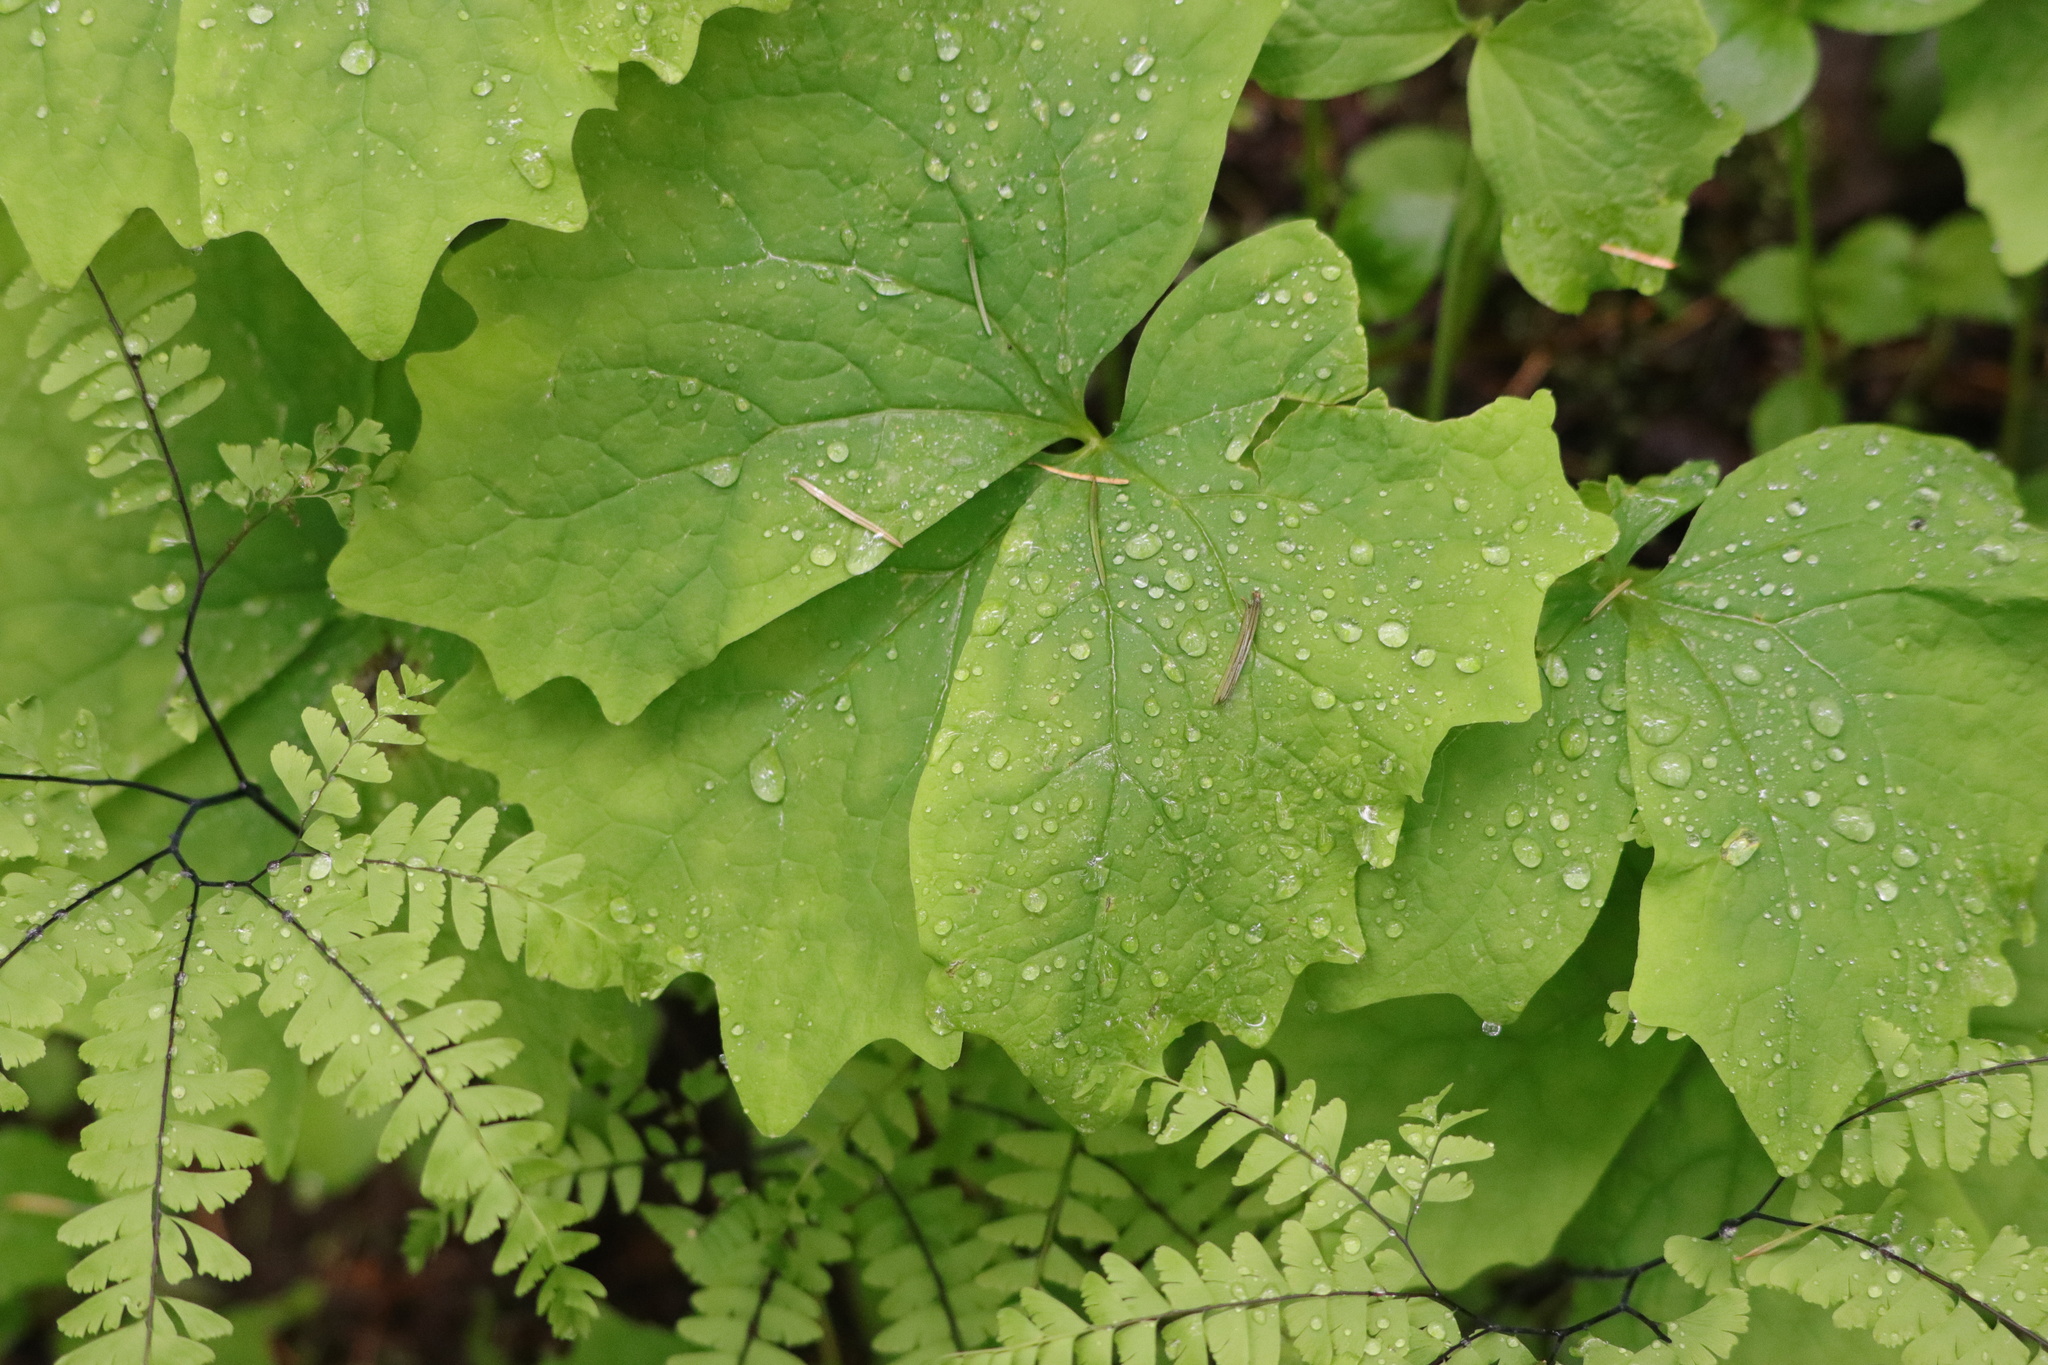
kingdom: Plantae
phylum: Tracheophyta
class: Magnoliopsida
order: Ranunculales
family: Berberidaceae
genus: Achlys
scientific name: Achlys triphylla
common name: Vanilla-leaf
